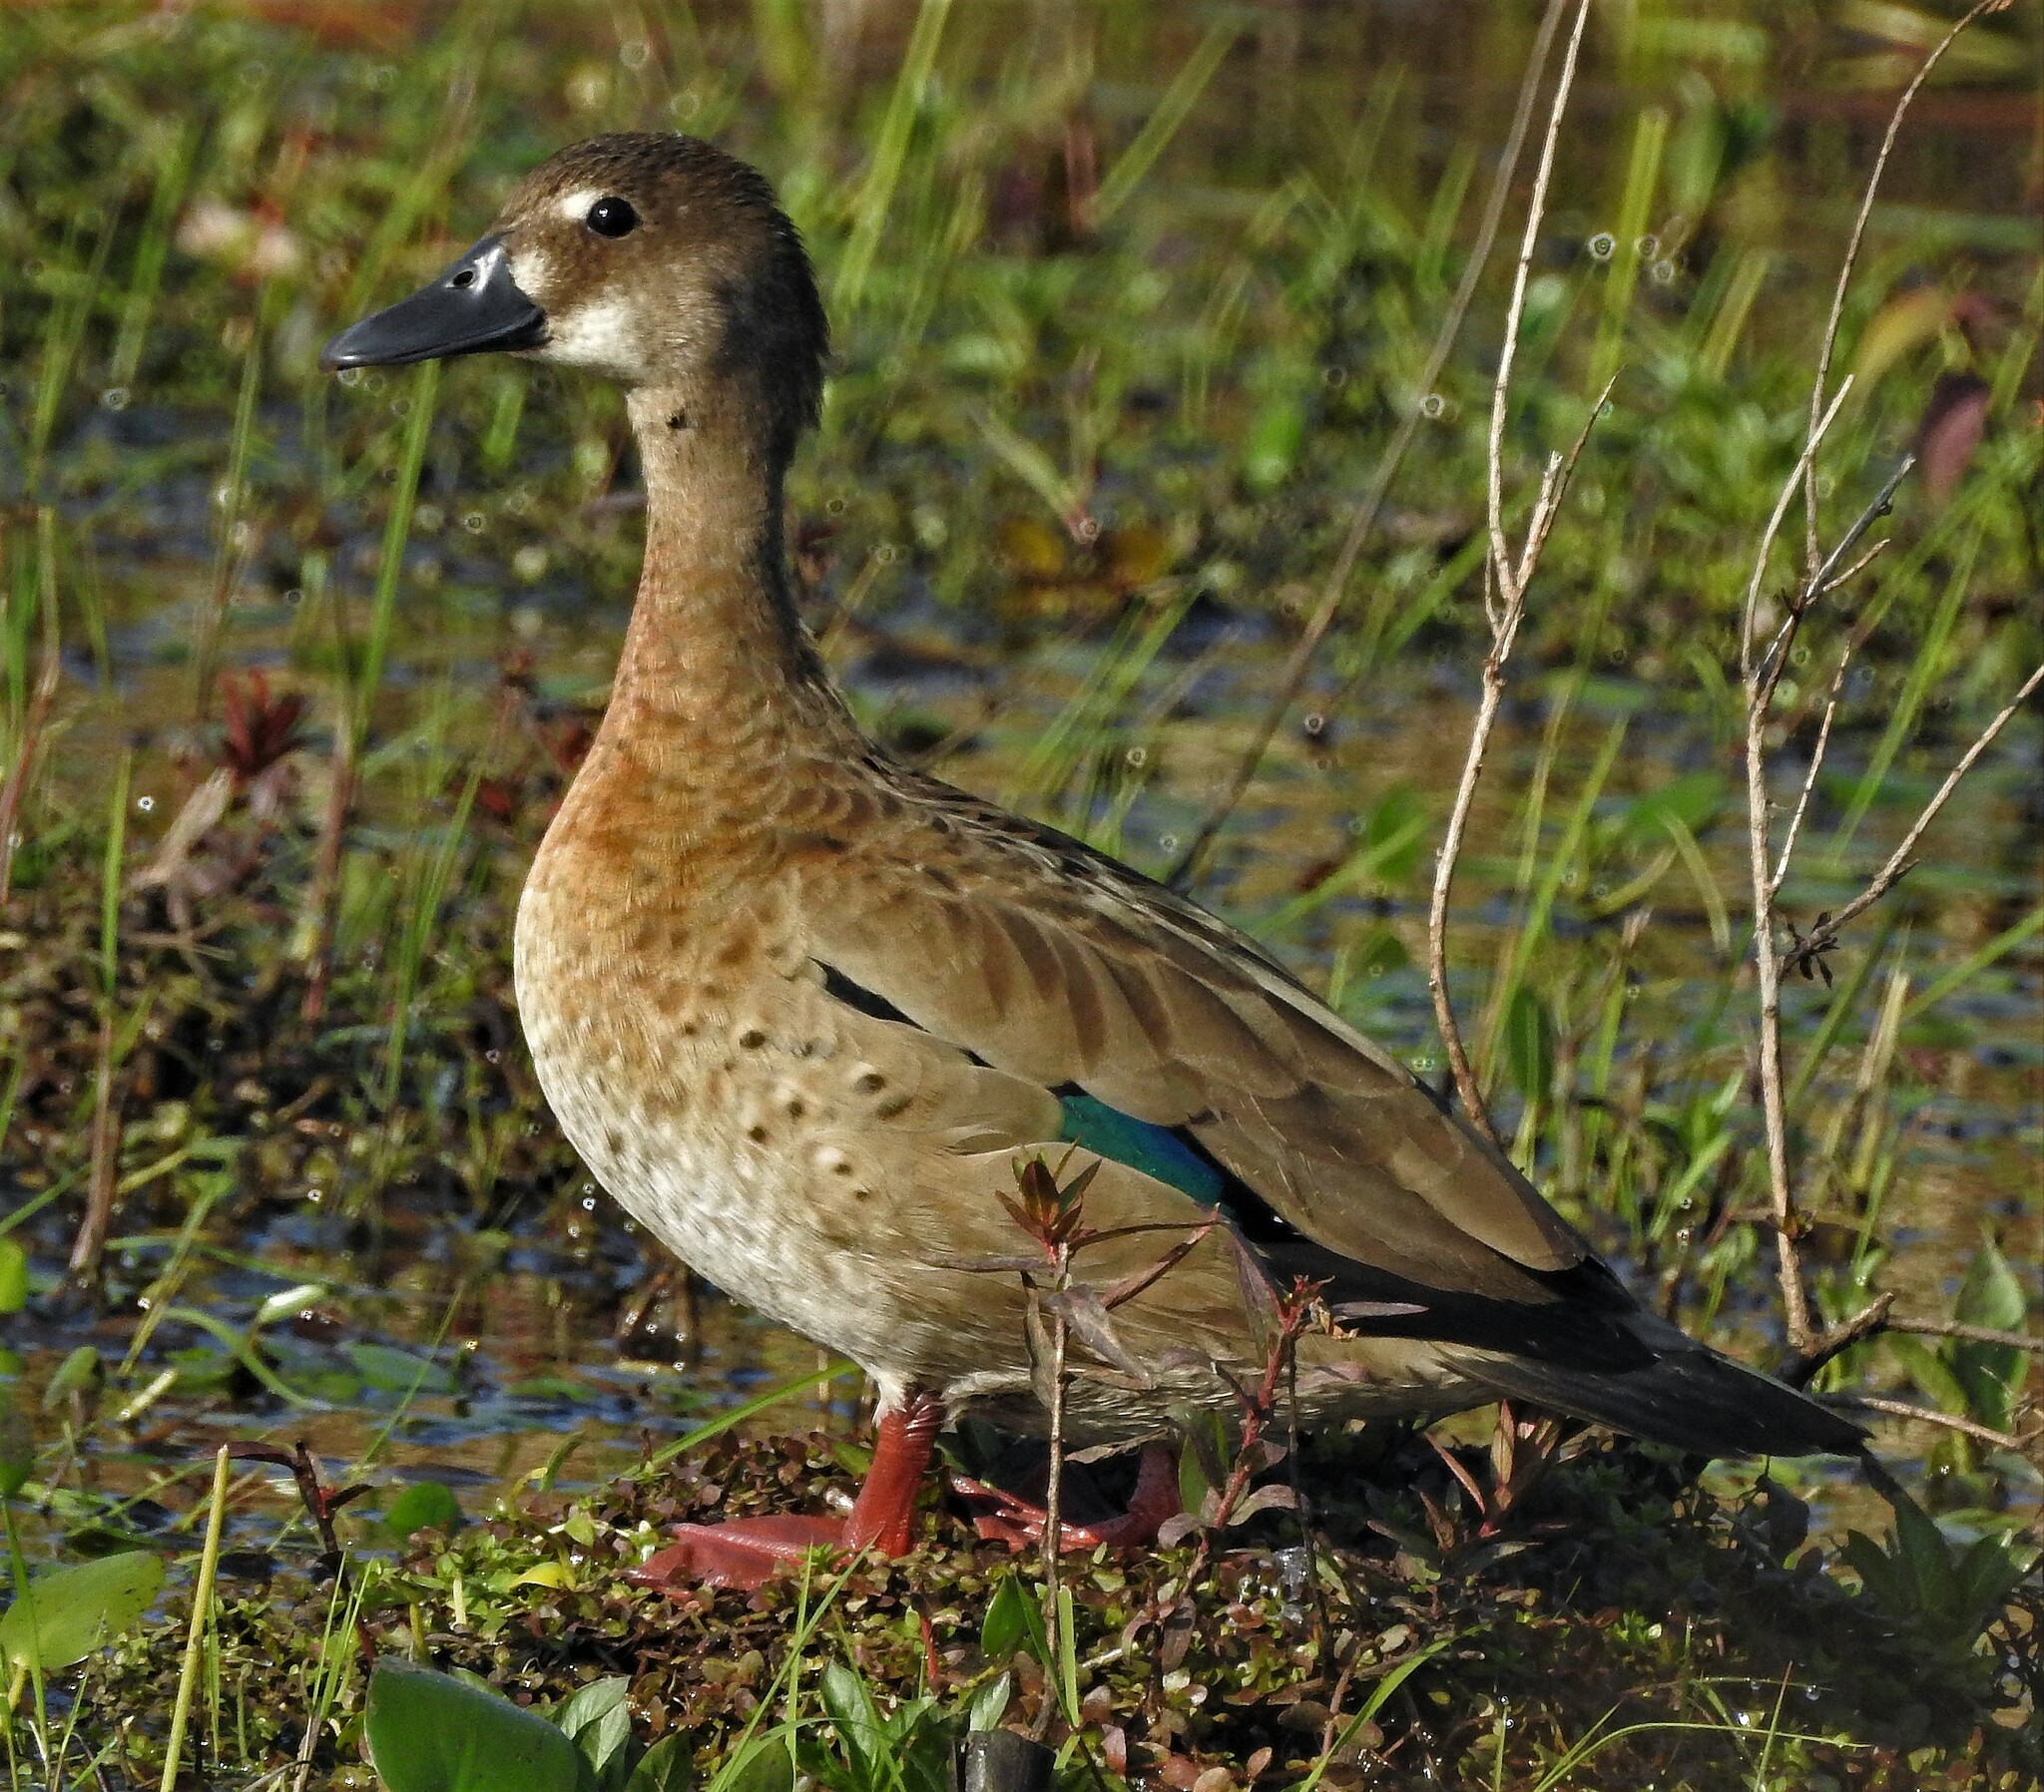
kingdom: Animalia
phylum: Chordata
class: Aves
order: Anseriformes
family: Anatidae
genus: Amazonetta
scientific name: Amazonetta brasiliensis
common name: Brazilian teal
